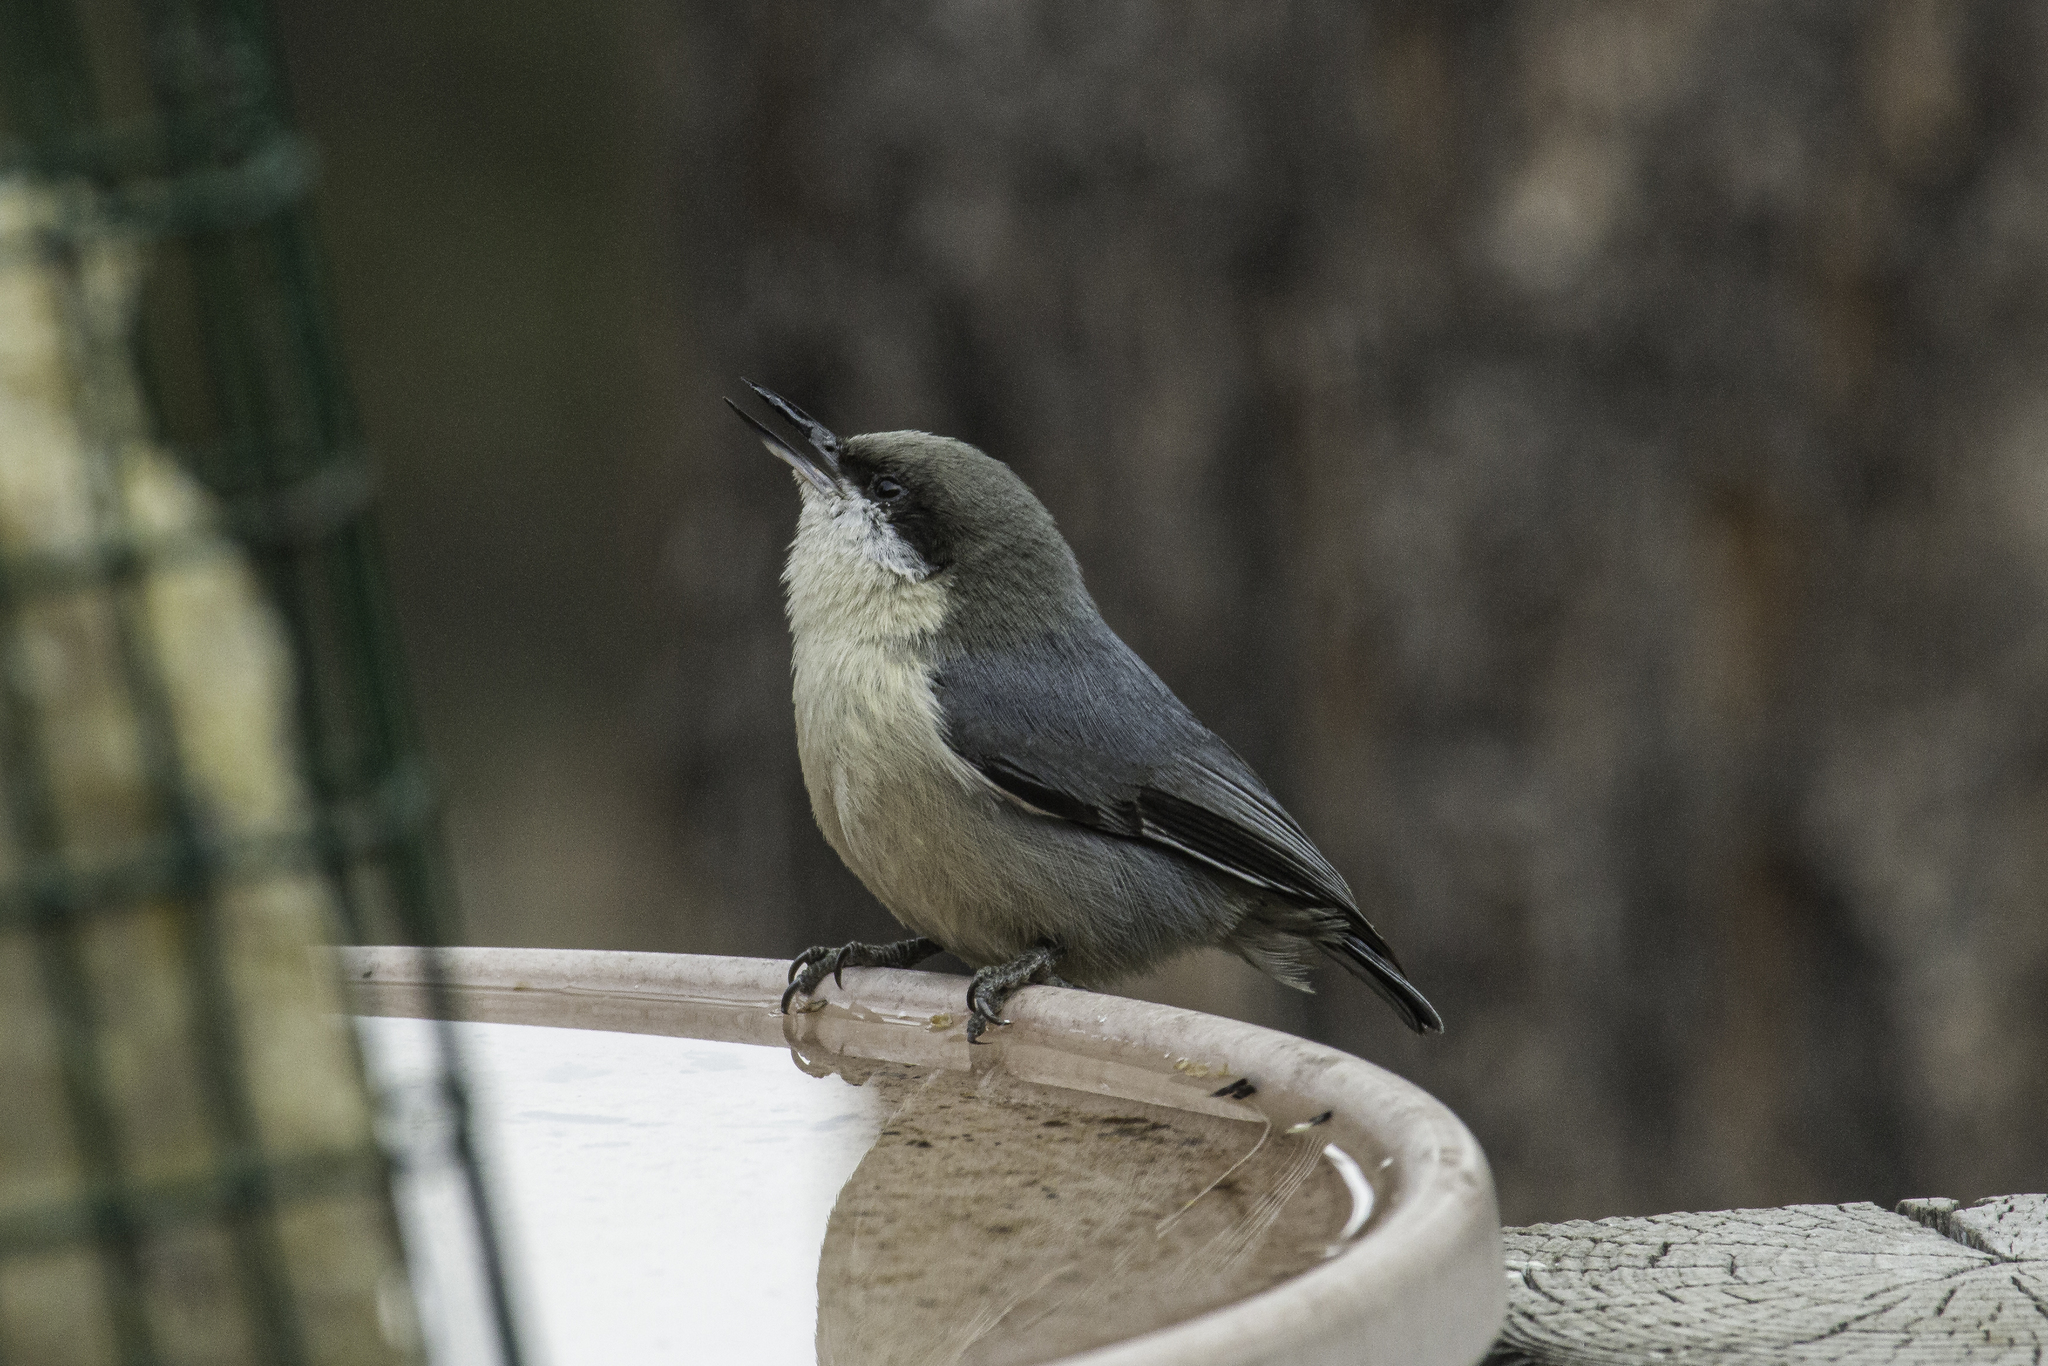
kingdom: Animalia
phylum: Chordata
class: Aves
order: Passeriformes
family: Sittidae
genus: Sitta
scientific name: Sitta pygmaea
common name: Pygmy nuthatch
